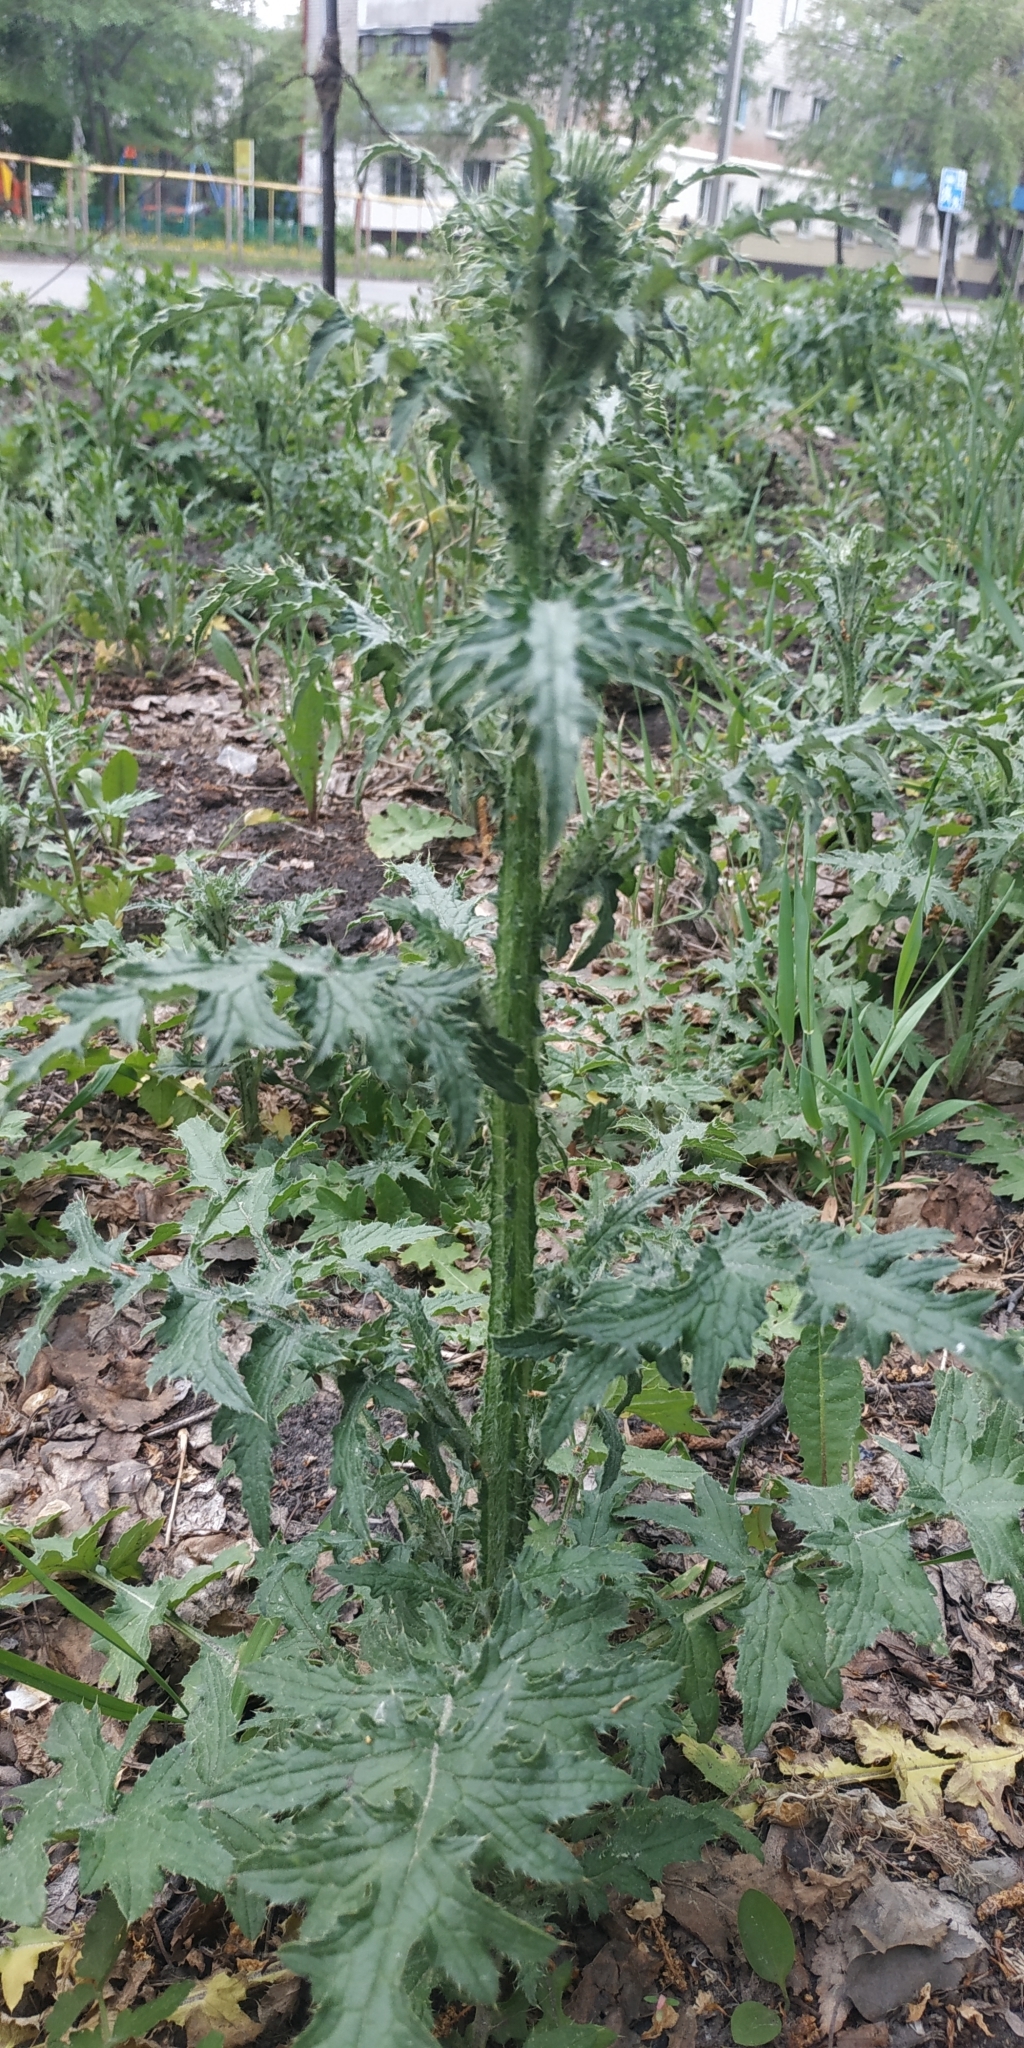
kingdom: Plantae
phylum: Tracheophyta
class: Magnoliopsida
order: Asterales
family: Asteraceae
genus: Carduus
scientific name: Carduus crispus
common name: Welted thistle
